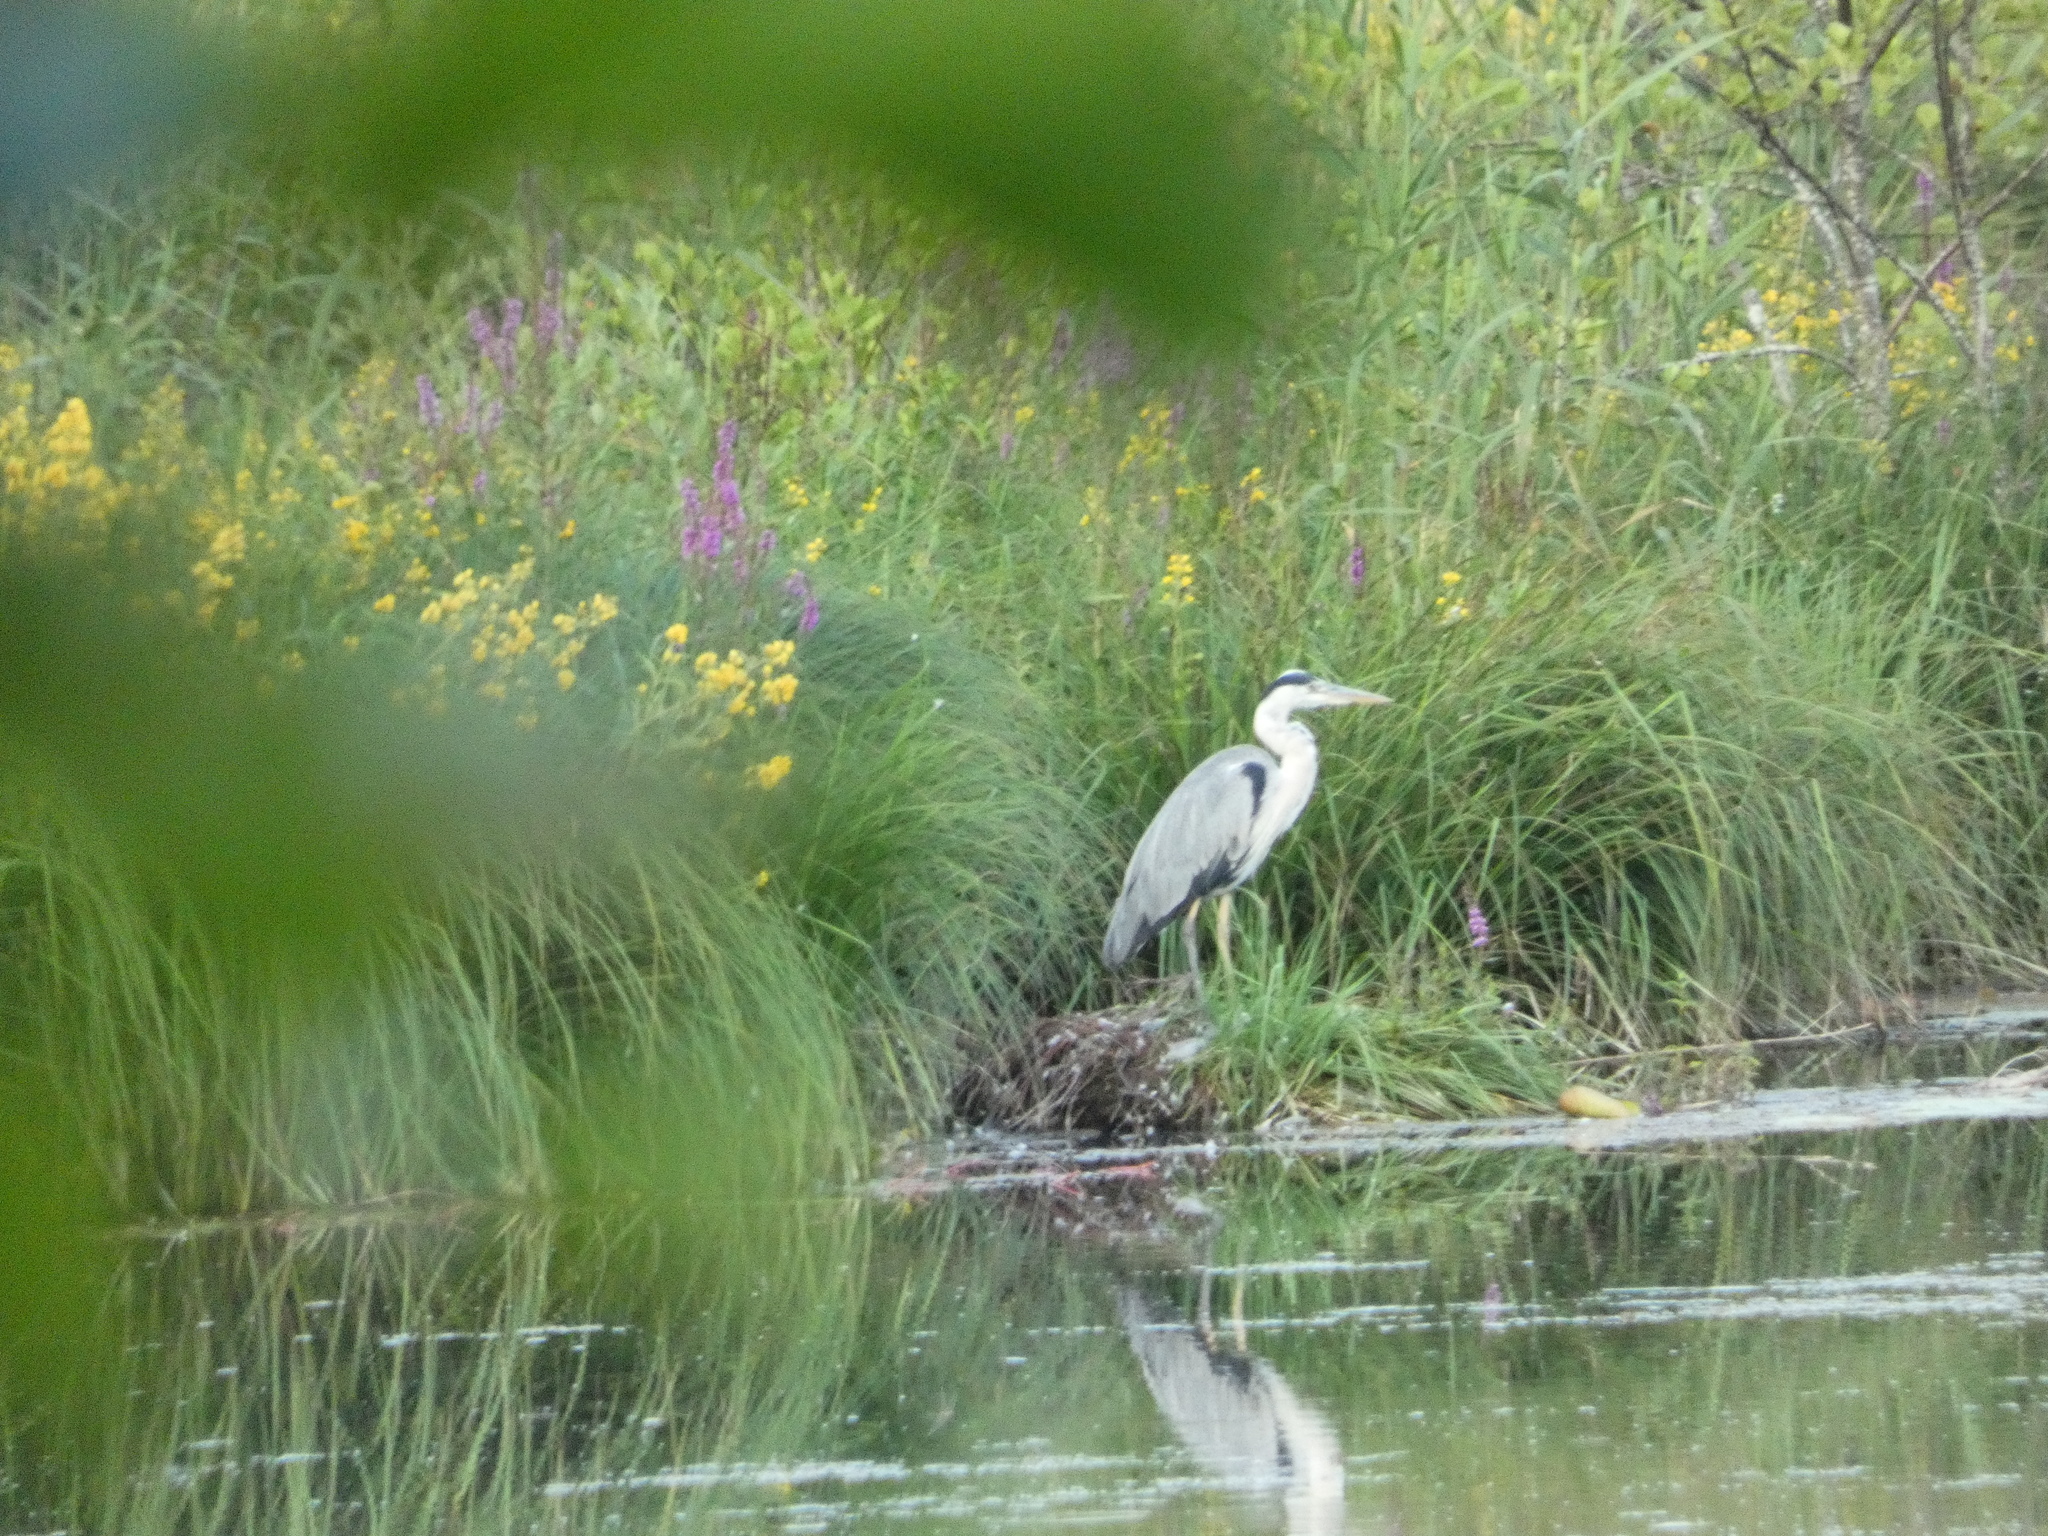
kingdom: Animalia
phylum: Chordata
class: Aves
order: Pelecaniformes
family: Ardeidae
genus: Ardea
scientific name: Ardea cinerea
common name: Grey heron
